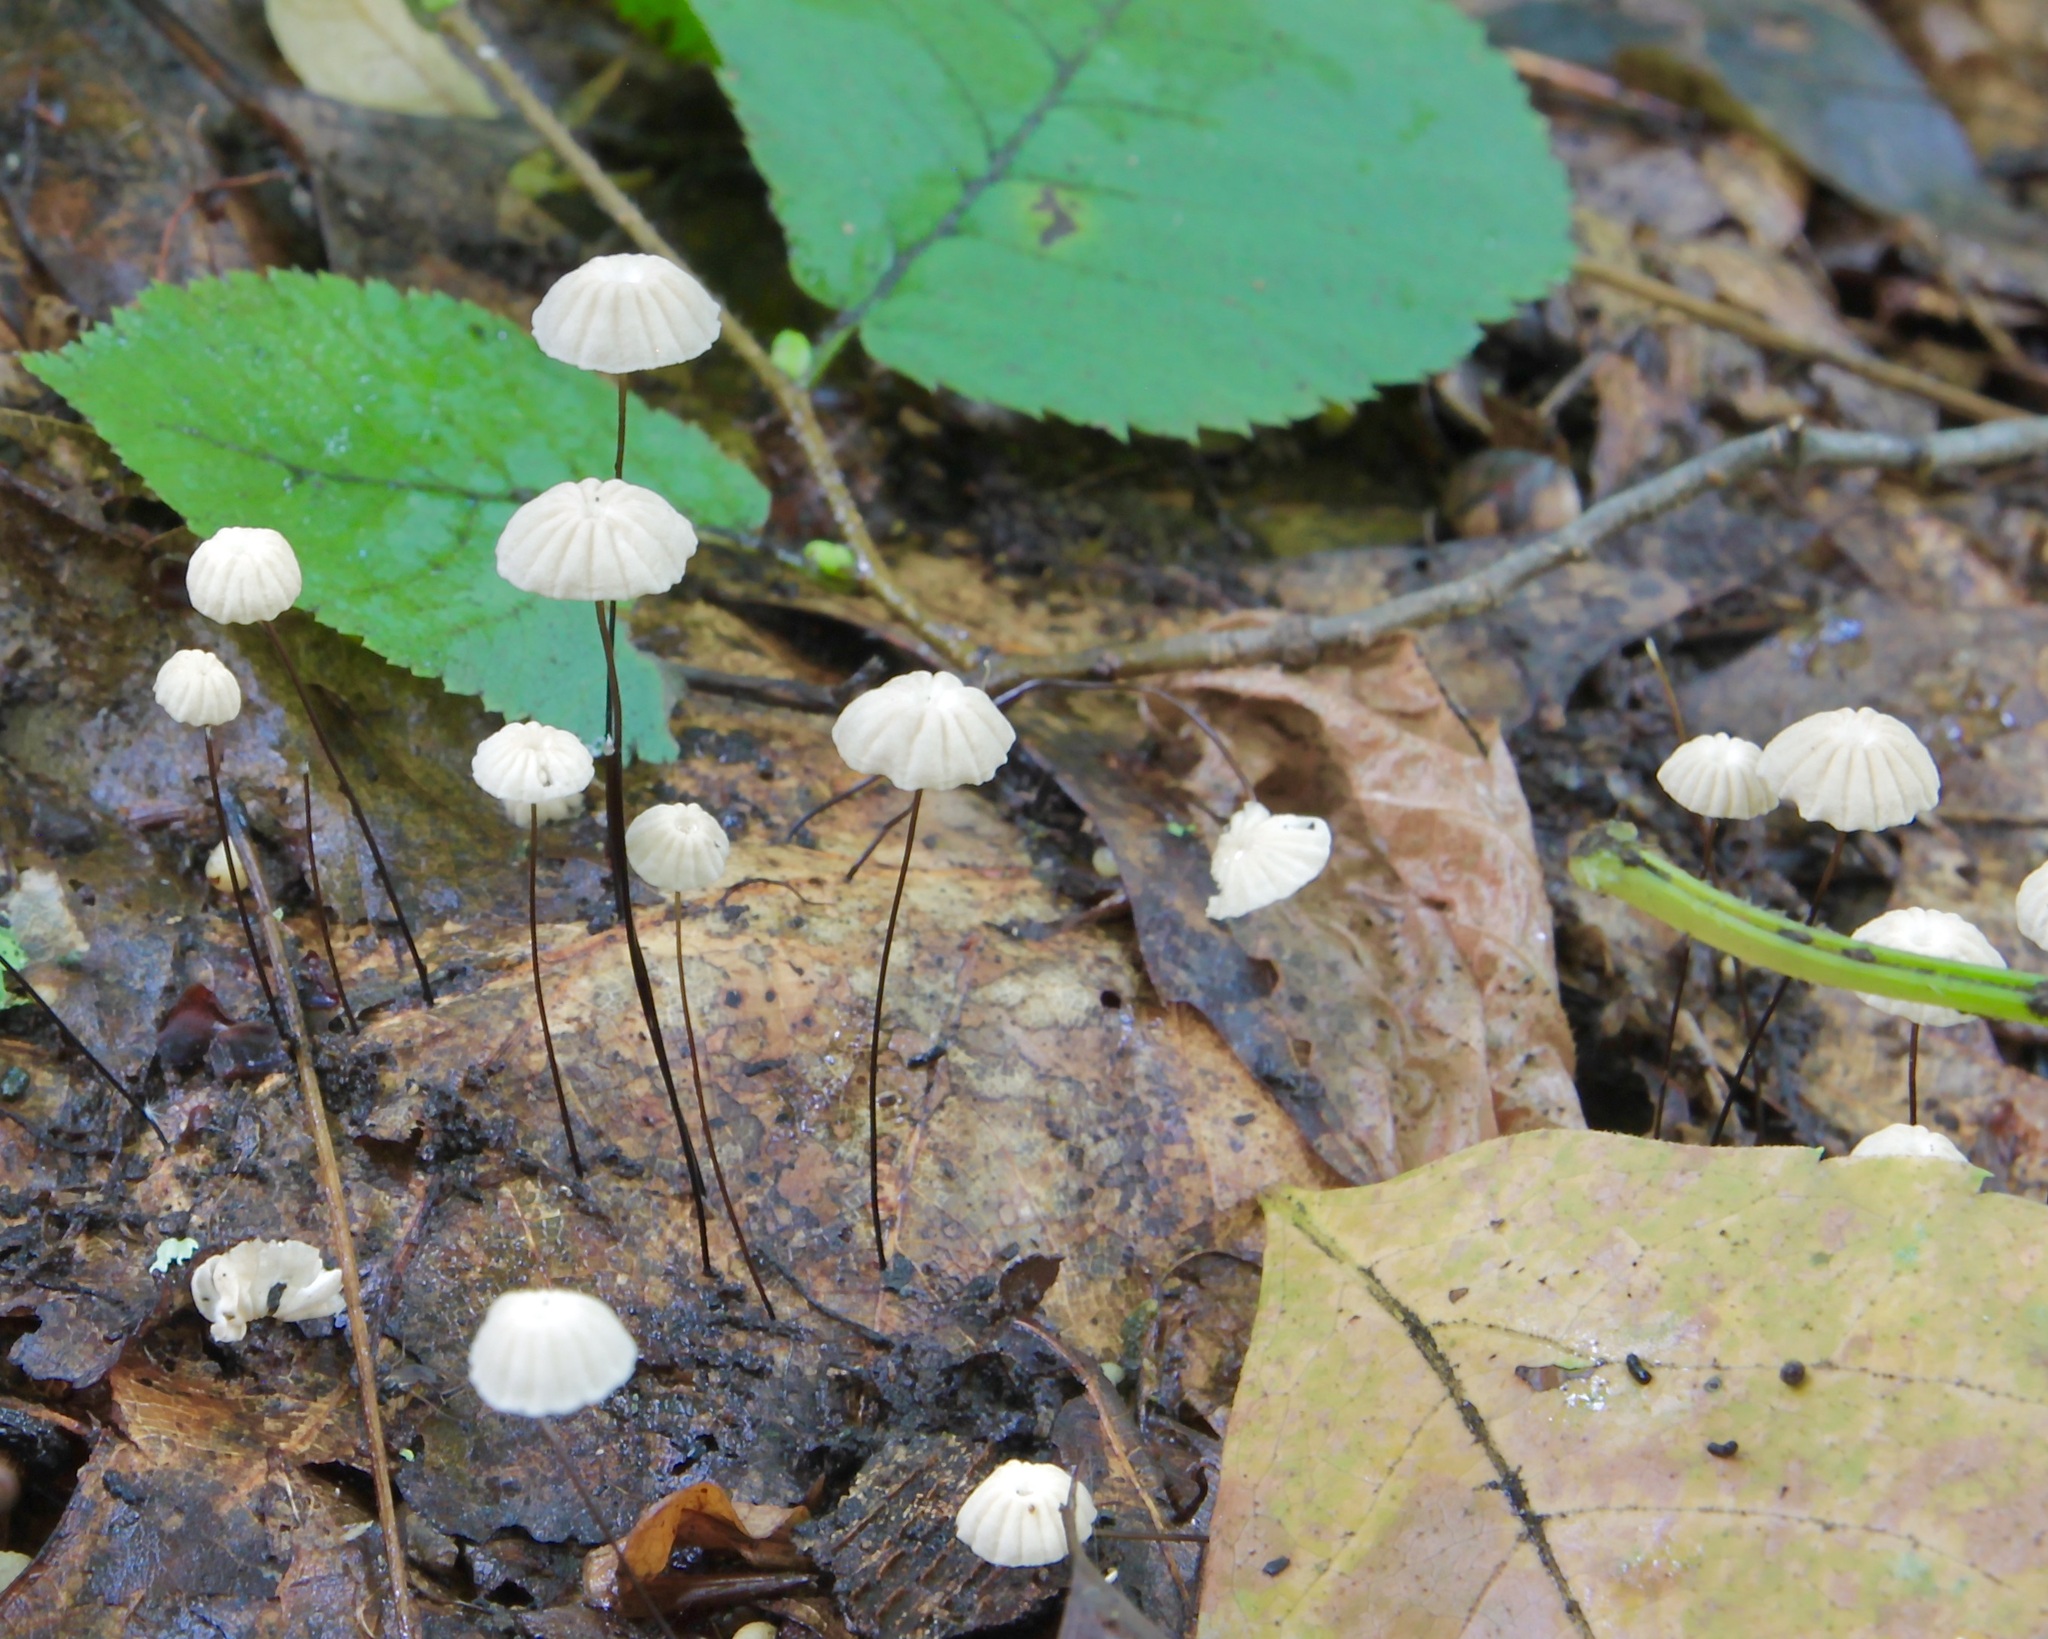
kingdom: Fungi
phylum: Basidiomycota
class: Agaricomycetes
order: Agaricales
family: Marasmiaceae
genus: Marasmius
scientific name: Marasmius capillaris
